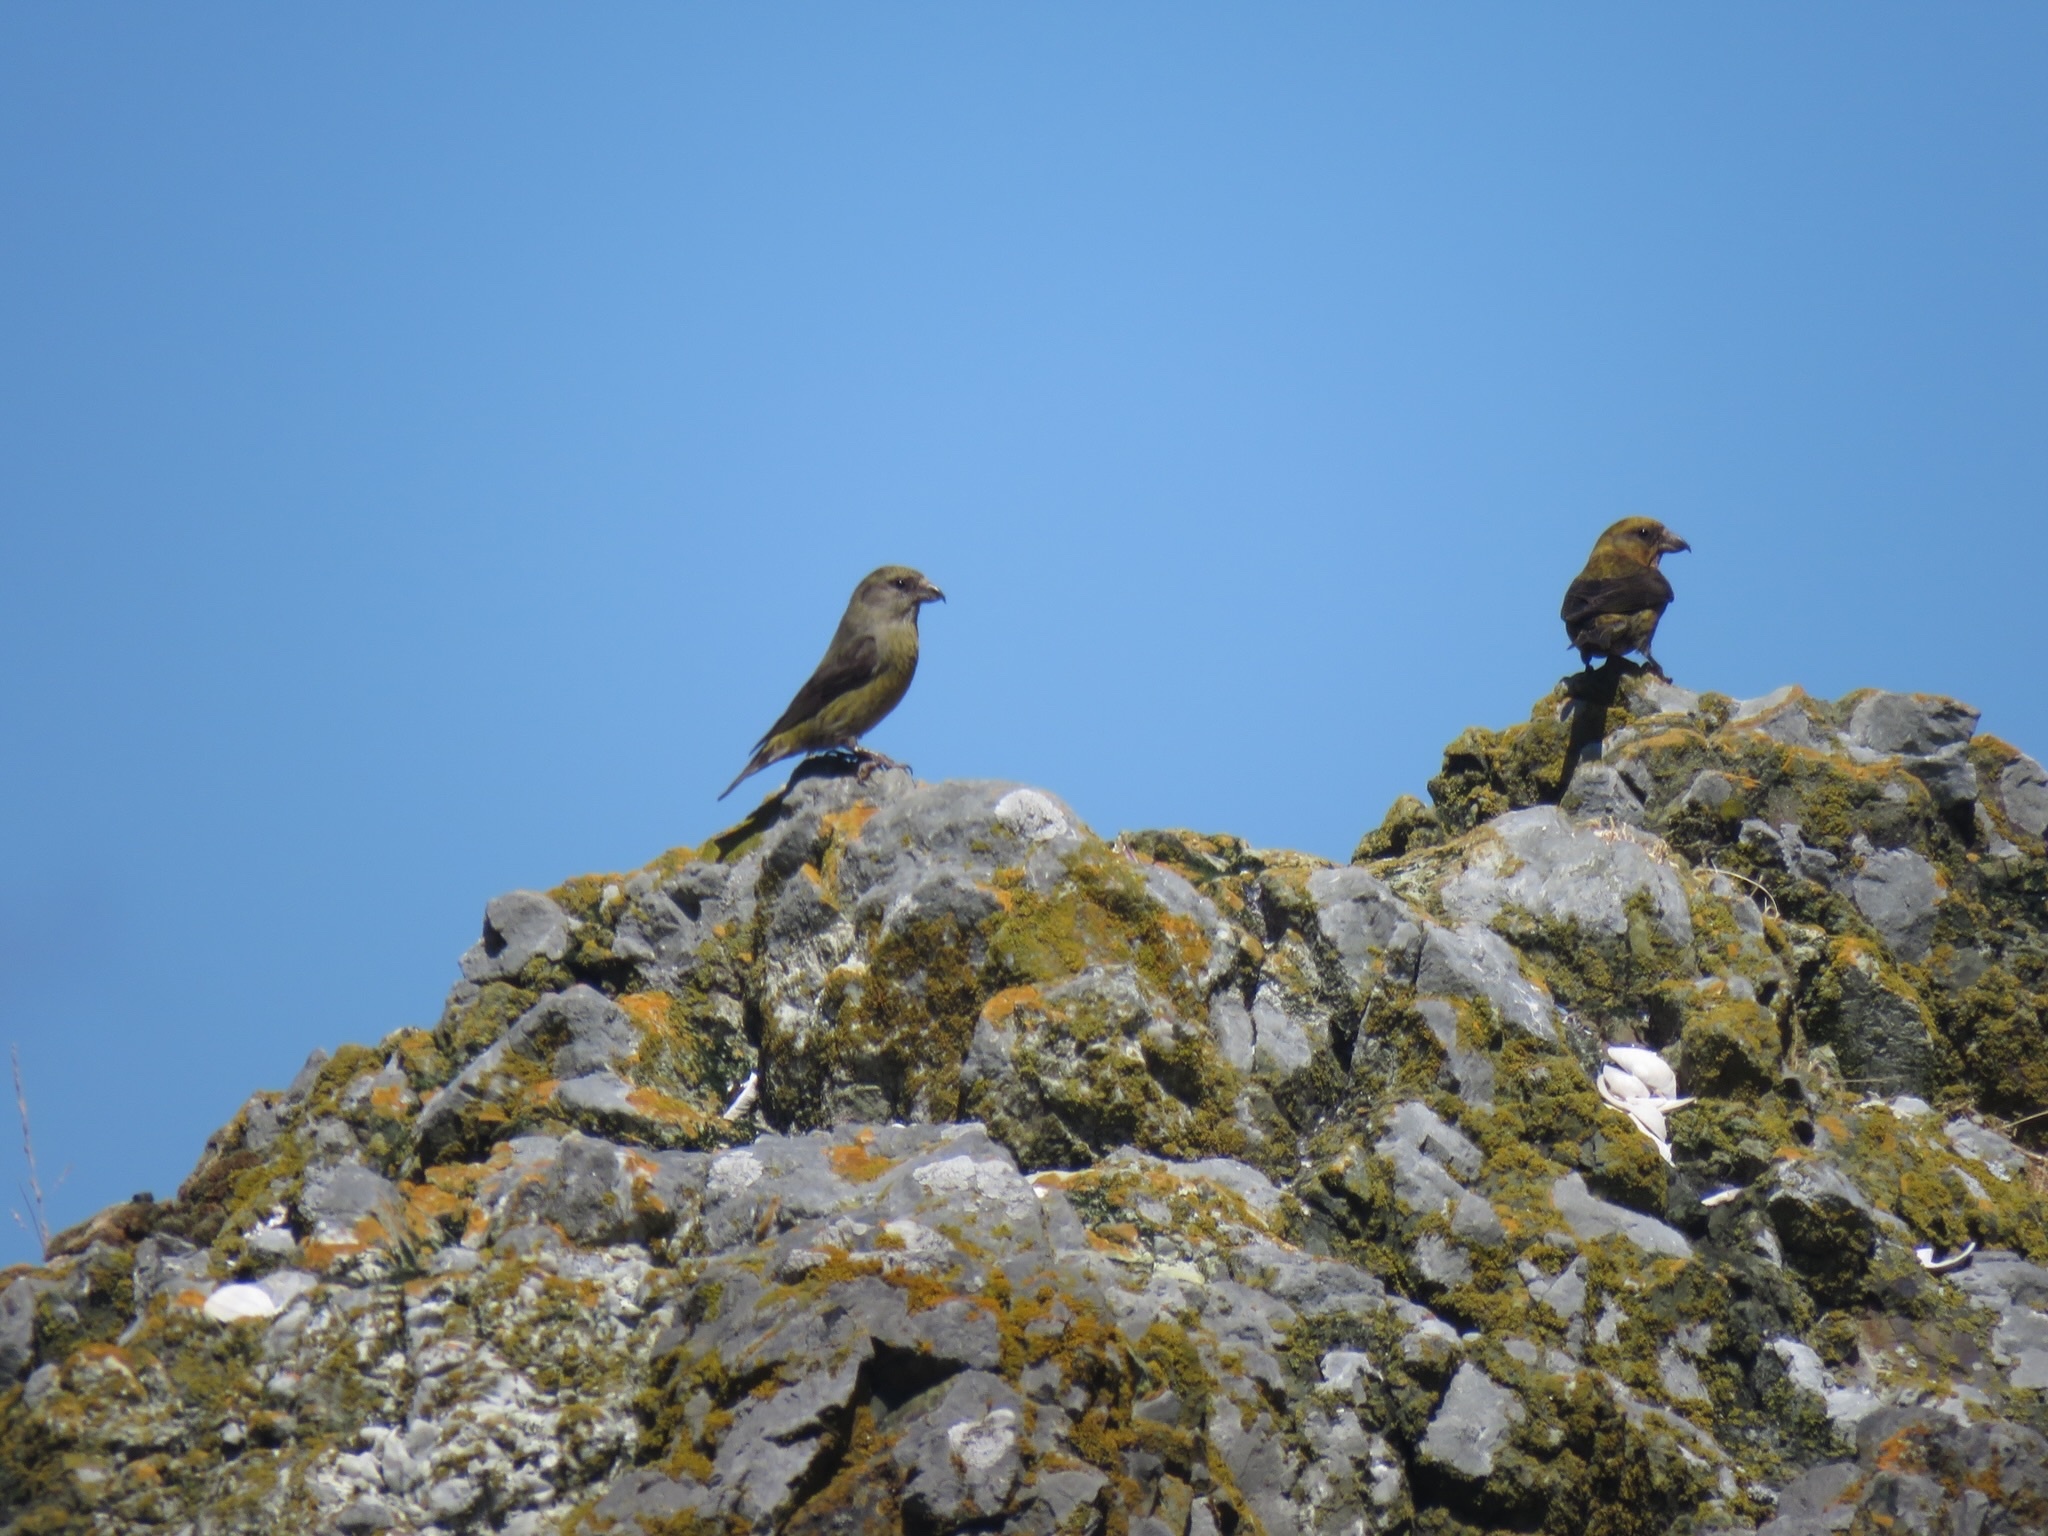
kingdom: Animalia
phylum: Chordata
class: Aves
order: Passeriformes
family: Fringillidae
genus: Loxia
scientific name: Loxia curvirostra
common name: Red crossbill
